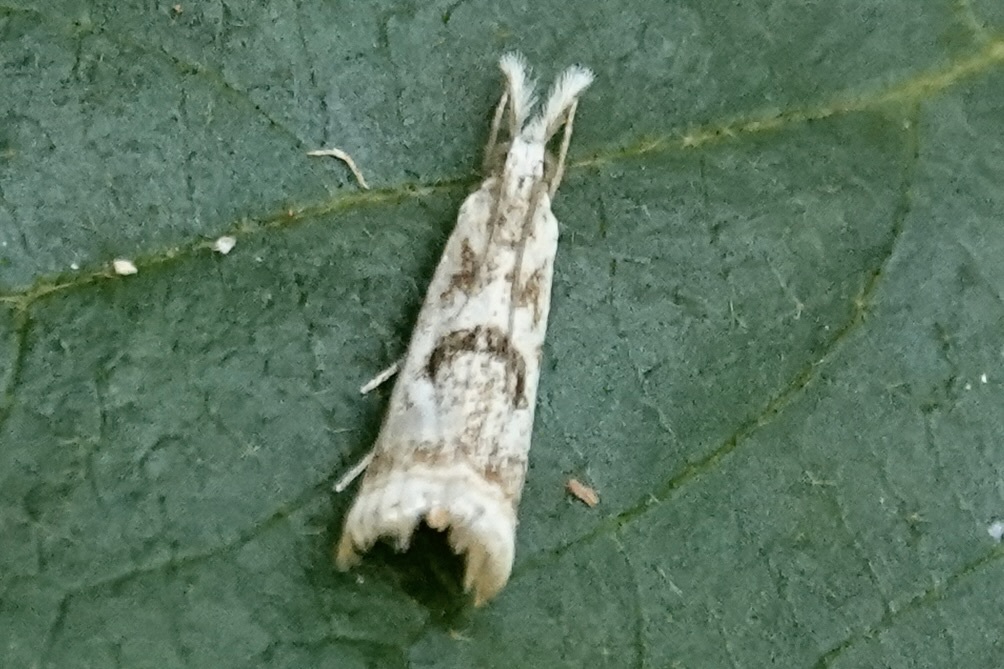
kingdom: Animalia
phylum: Arthropoda
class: Insecta
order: Lepidoptera
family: Crambidae
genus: Microcrambus
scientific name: Microcrambus elegans
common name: Elegant grass-veneer
